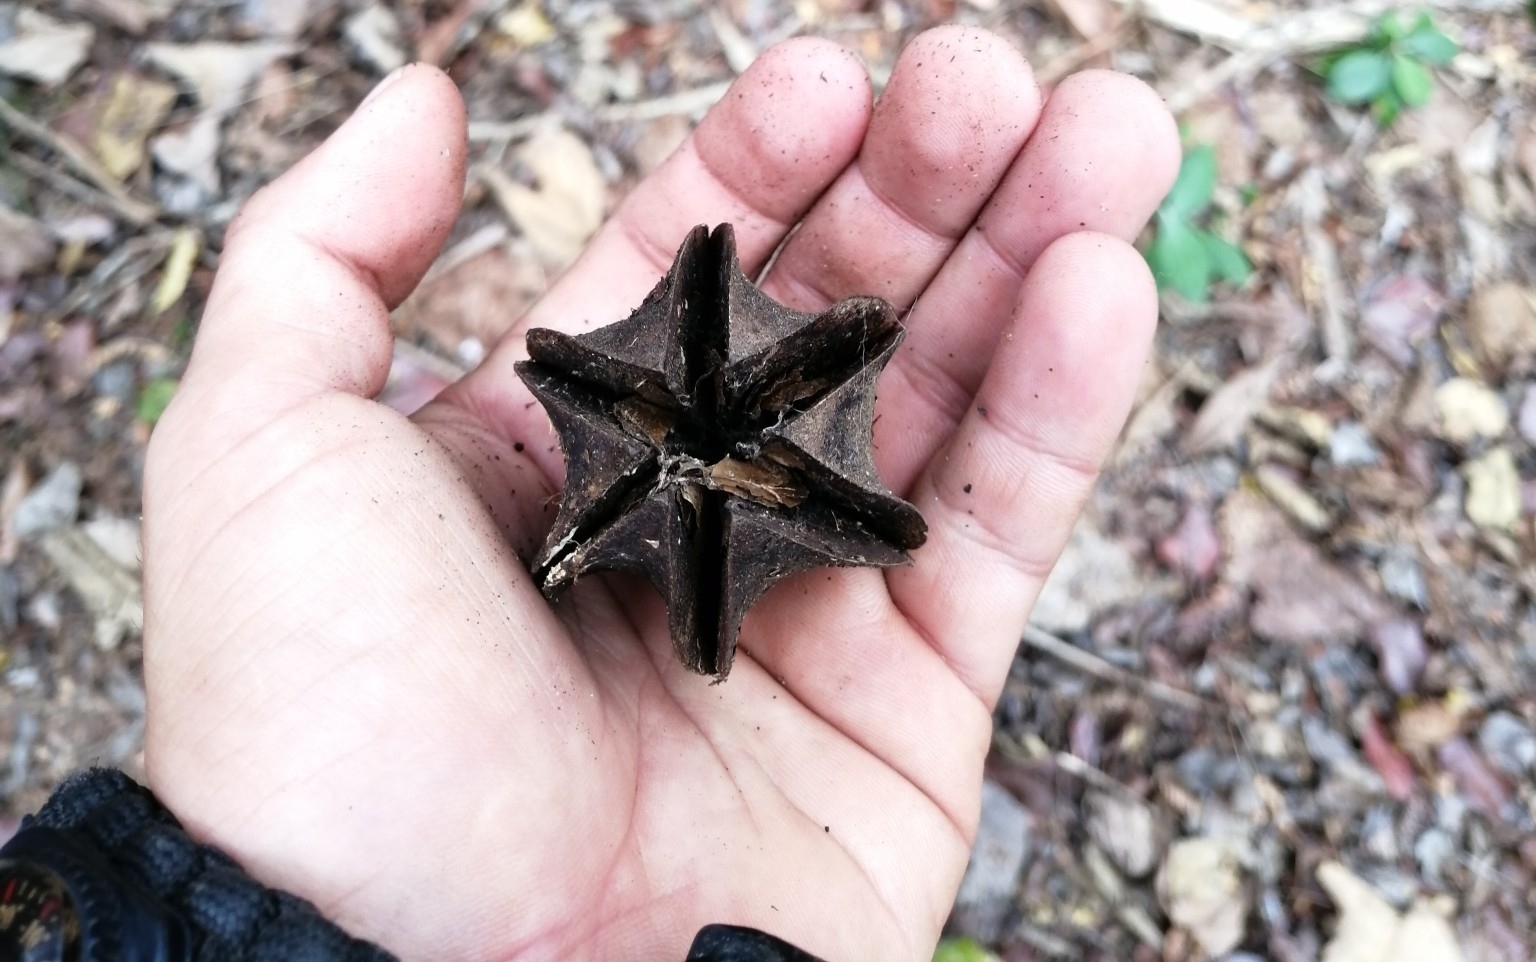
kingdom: Plantae
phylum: Tracheophyta
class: Magnoliopsida
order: Malvales
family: Malvaceae
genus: Luehea
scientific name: Luehea candida
